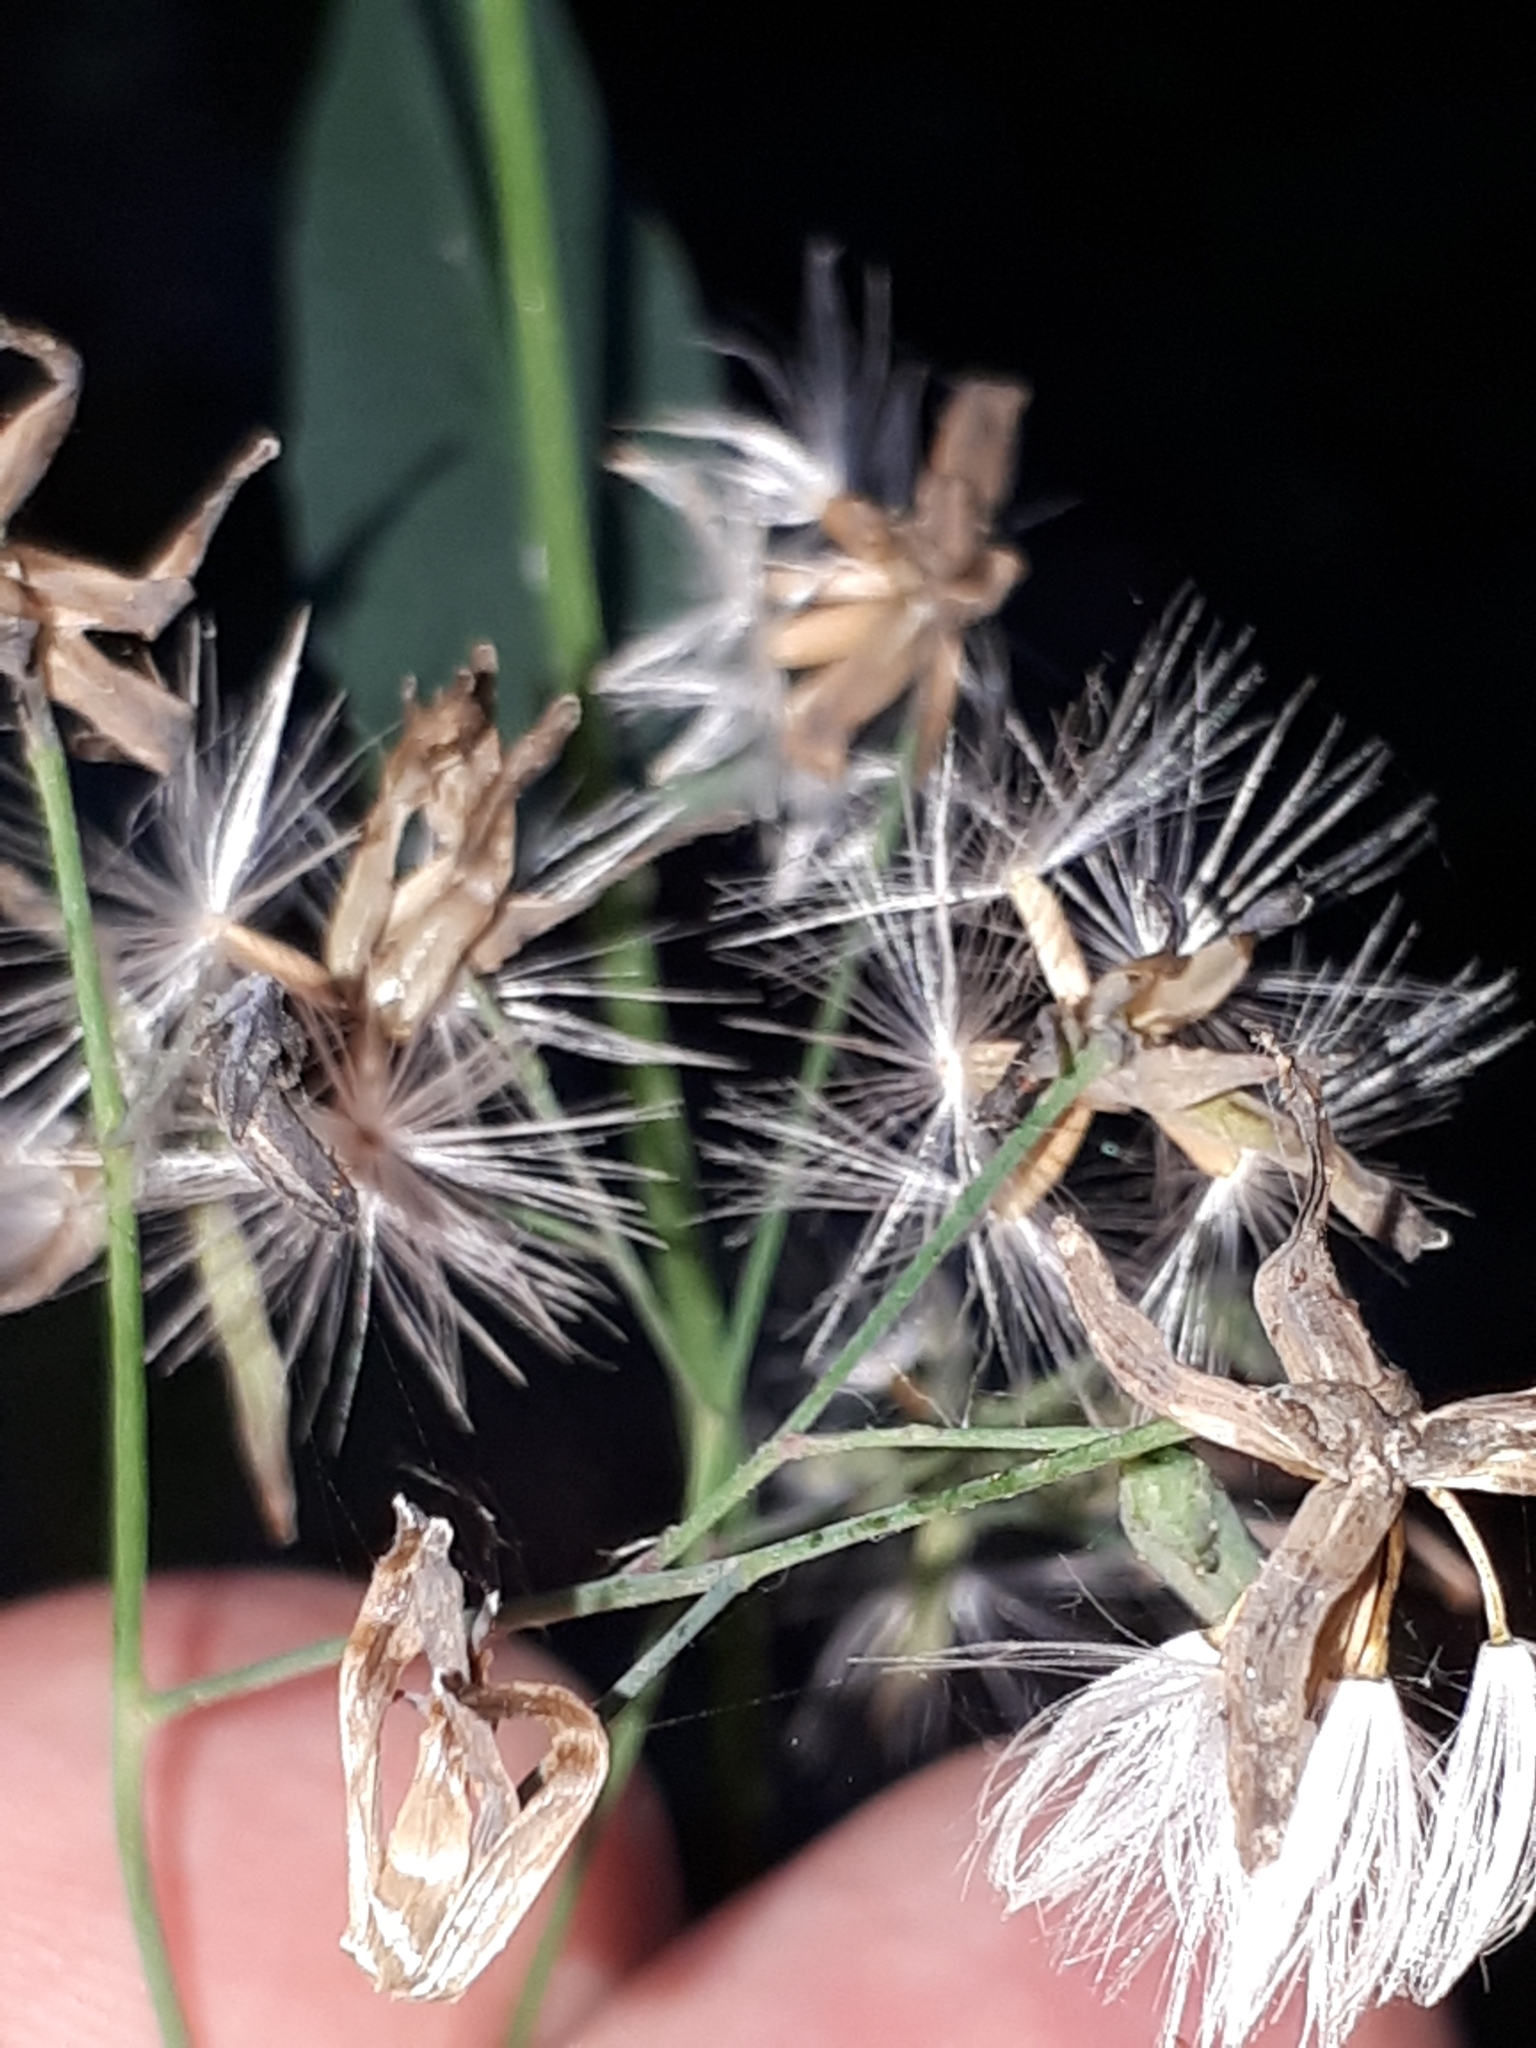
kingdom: Plantae
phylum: Tracheophyta
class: Magnoliopsida
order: Asterales
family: Asteraceae
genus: Prenanthes
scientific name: Prenanthes purpurea
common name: Purple lettuce
